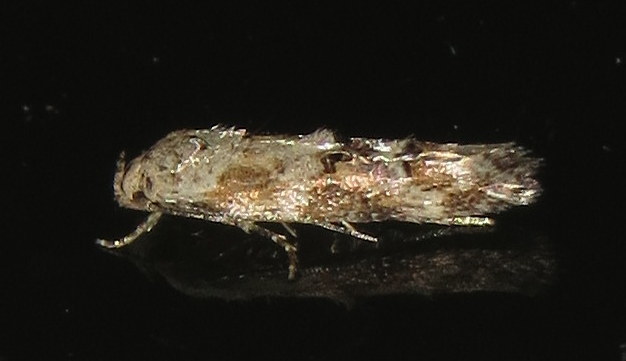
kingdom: Animalia
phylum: Arthropoda
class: Insecta
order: Lepidoptera
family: Momphidae
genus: Mompha
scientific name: Mompha stellella
